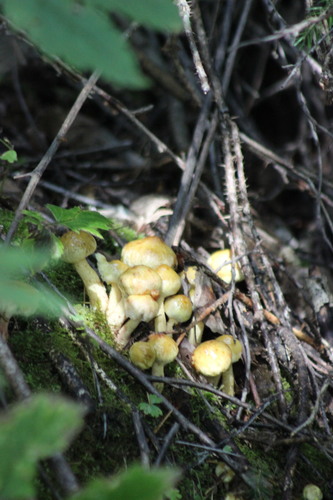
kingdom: Fungi
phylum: Basidiomycota
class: Agaricomycetes
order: Boletales
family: Suillaceae
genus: Suillus
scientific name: Suillus americanus
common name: Chicken fat mushroom
